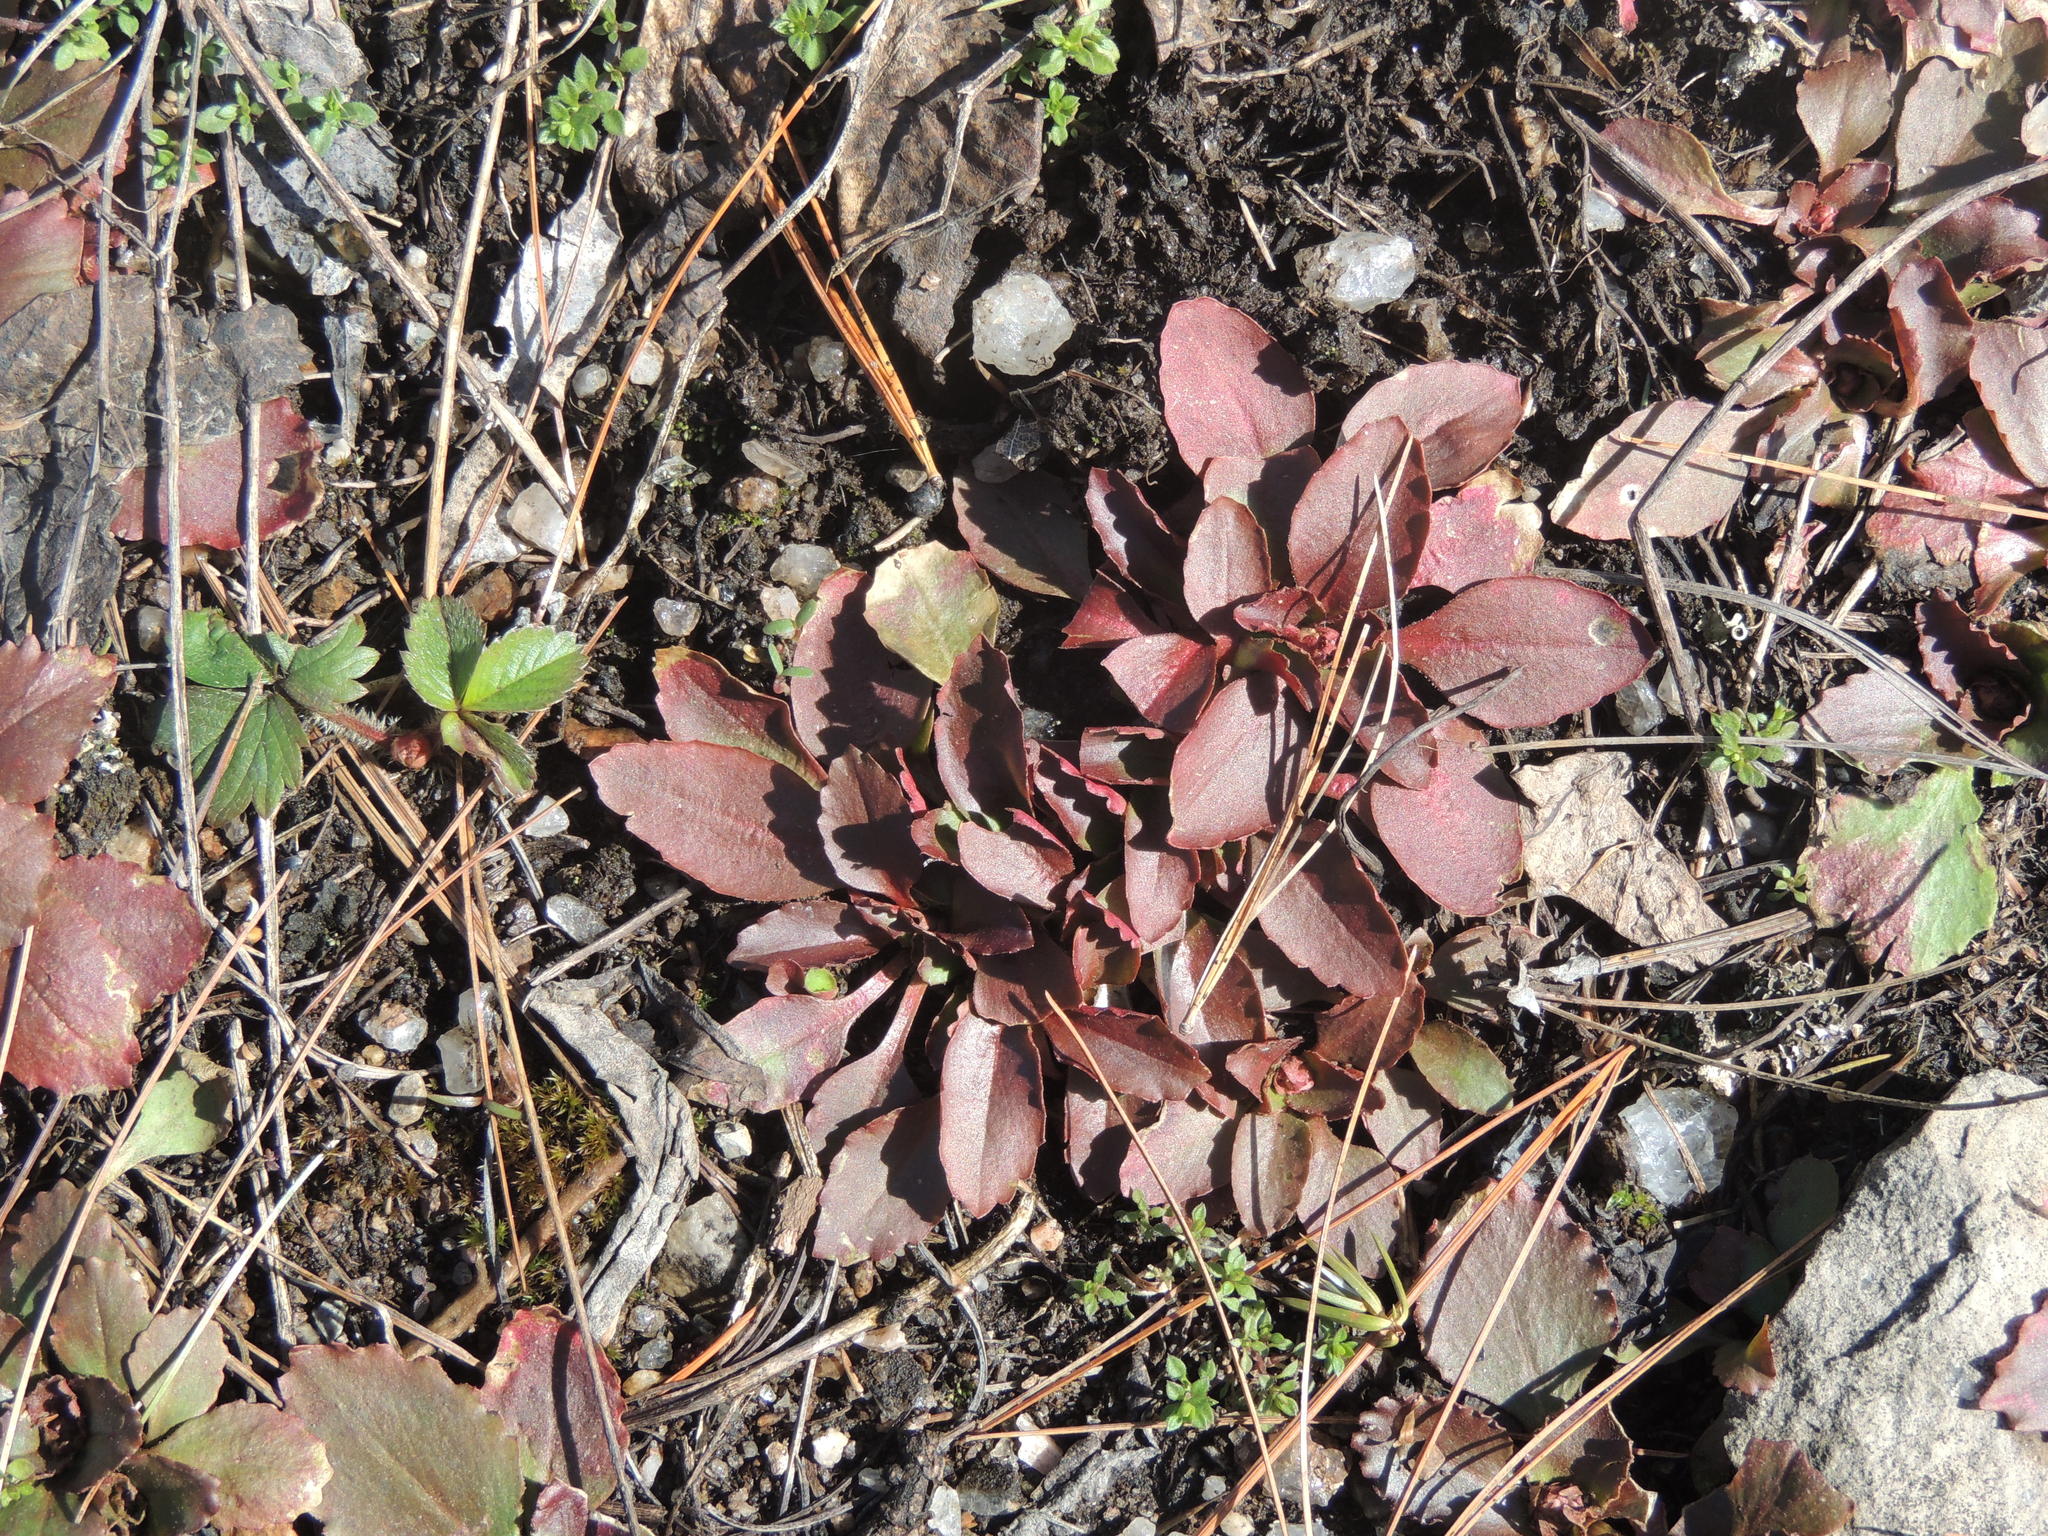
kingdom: Plantae
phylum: Tracheophyta
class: Magnoliopsida
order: Saxifragales
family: Saxifragaceae
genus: Micranthes
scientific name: Micranthes virginiensis
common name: Early saxifrage
